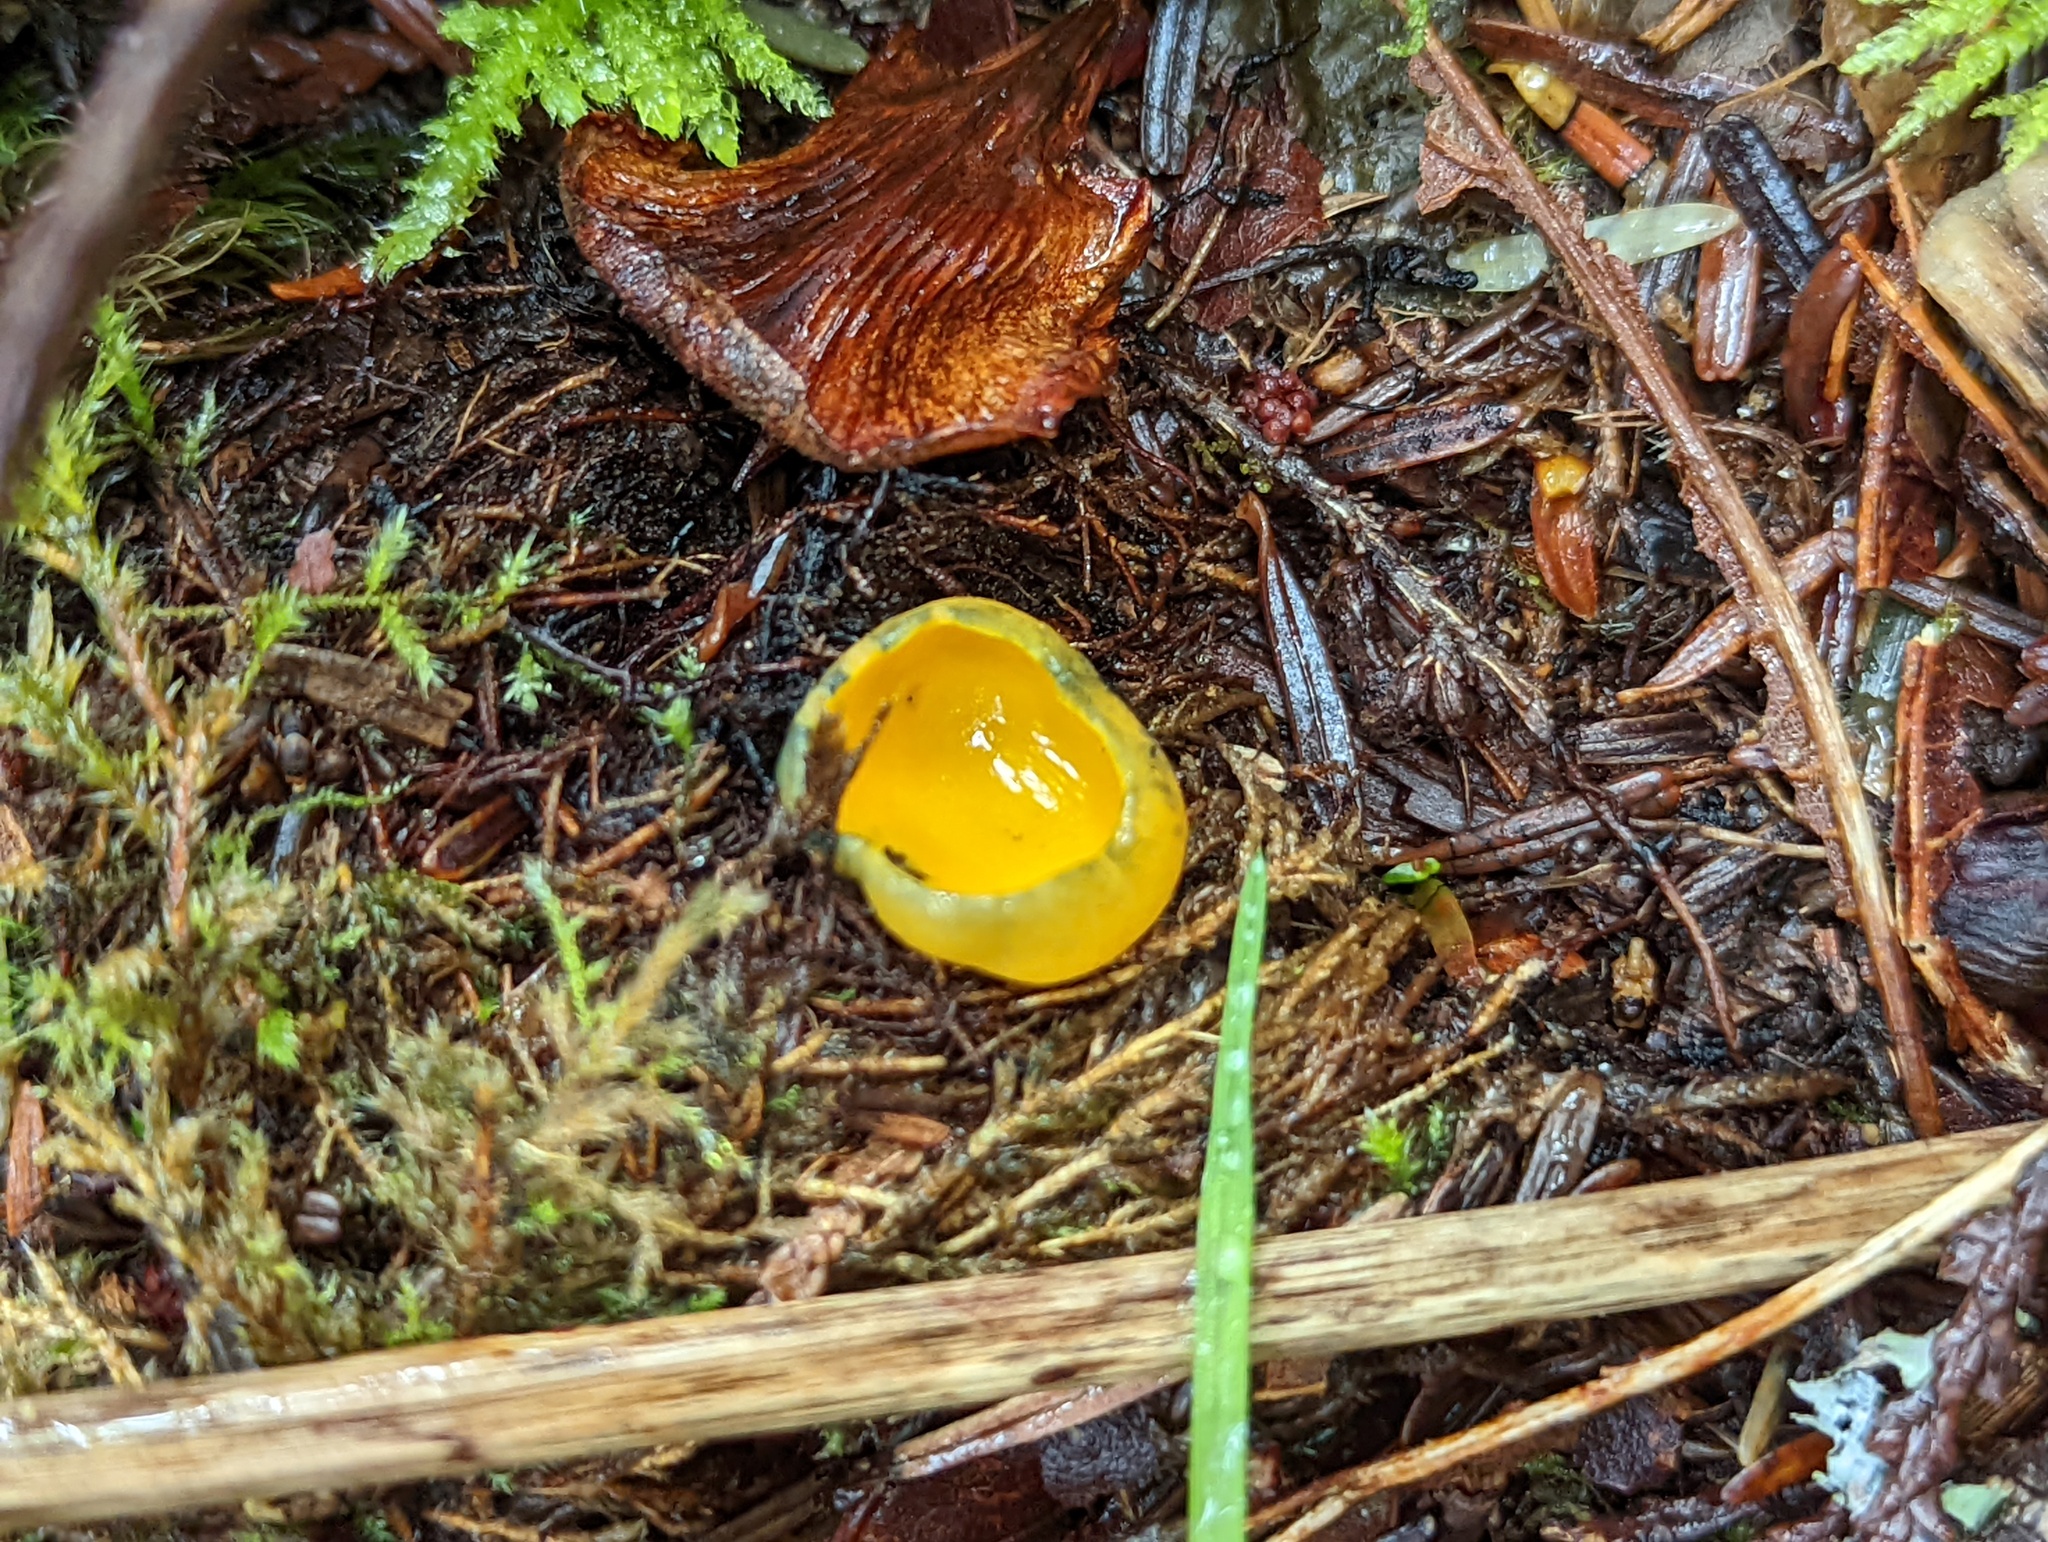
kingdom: Fungi
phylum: Ascomycota
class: Pezizomycetes
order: Pezizales
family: Caloscyphaceae
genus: Caloscypha
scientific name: Caloscypha fulgens
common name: Golden cup
